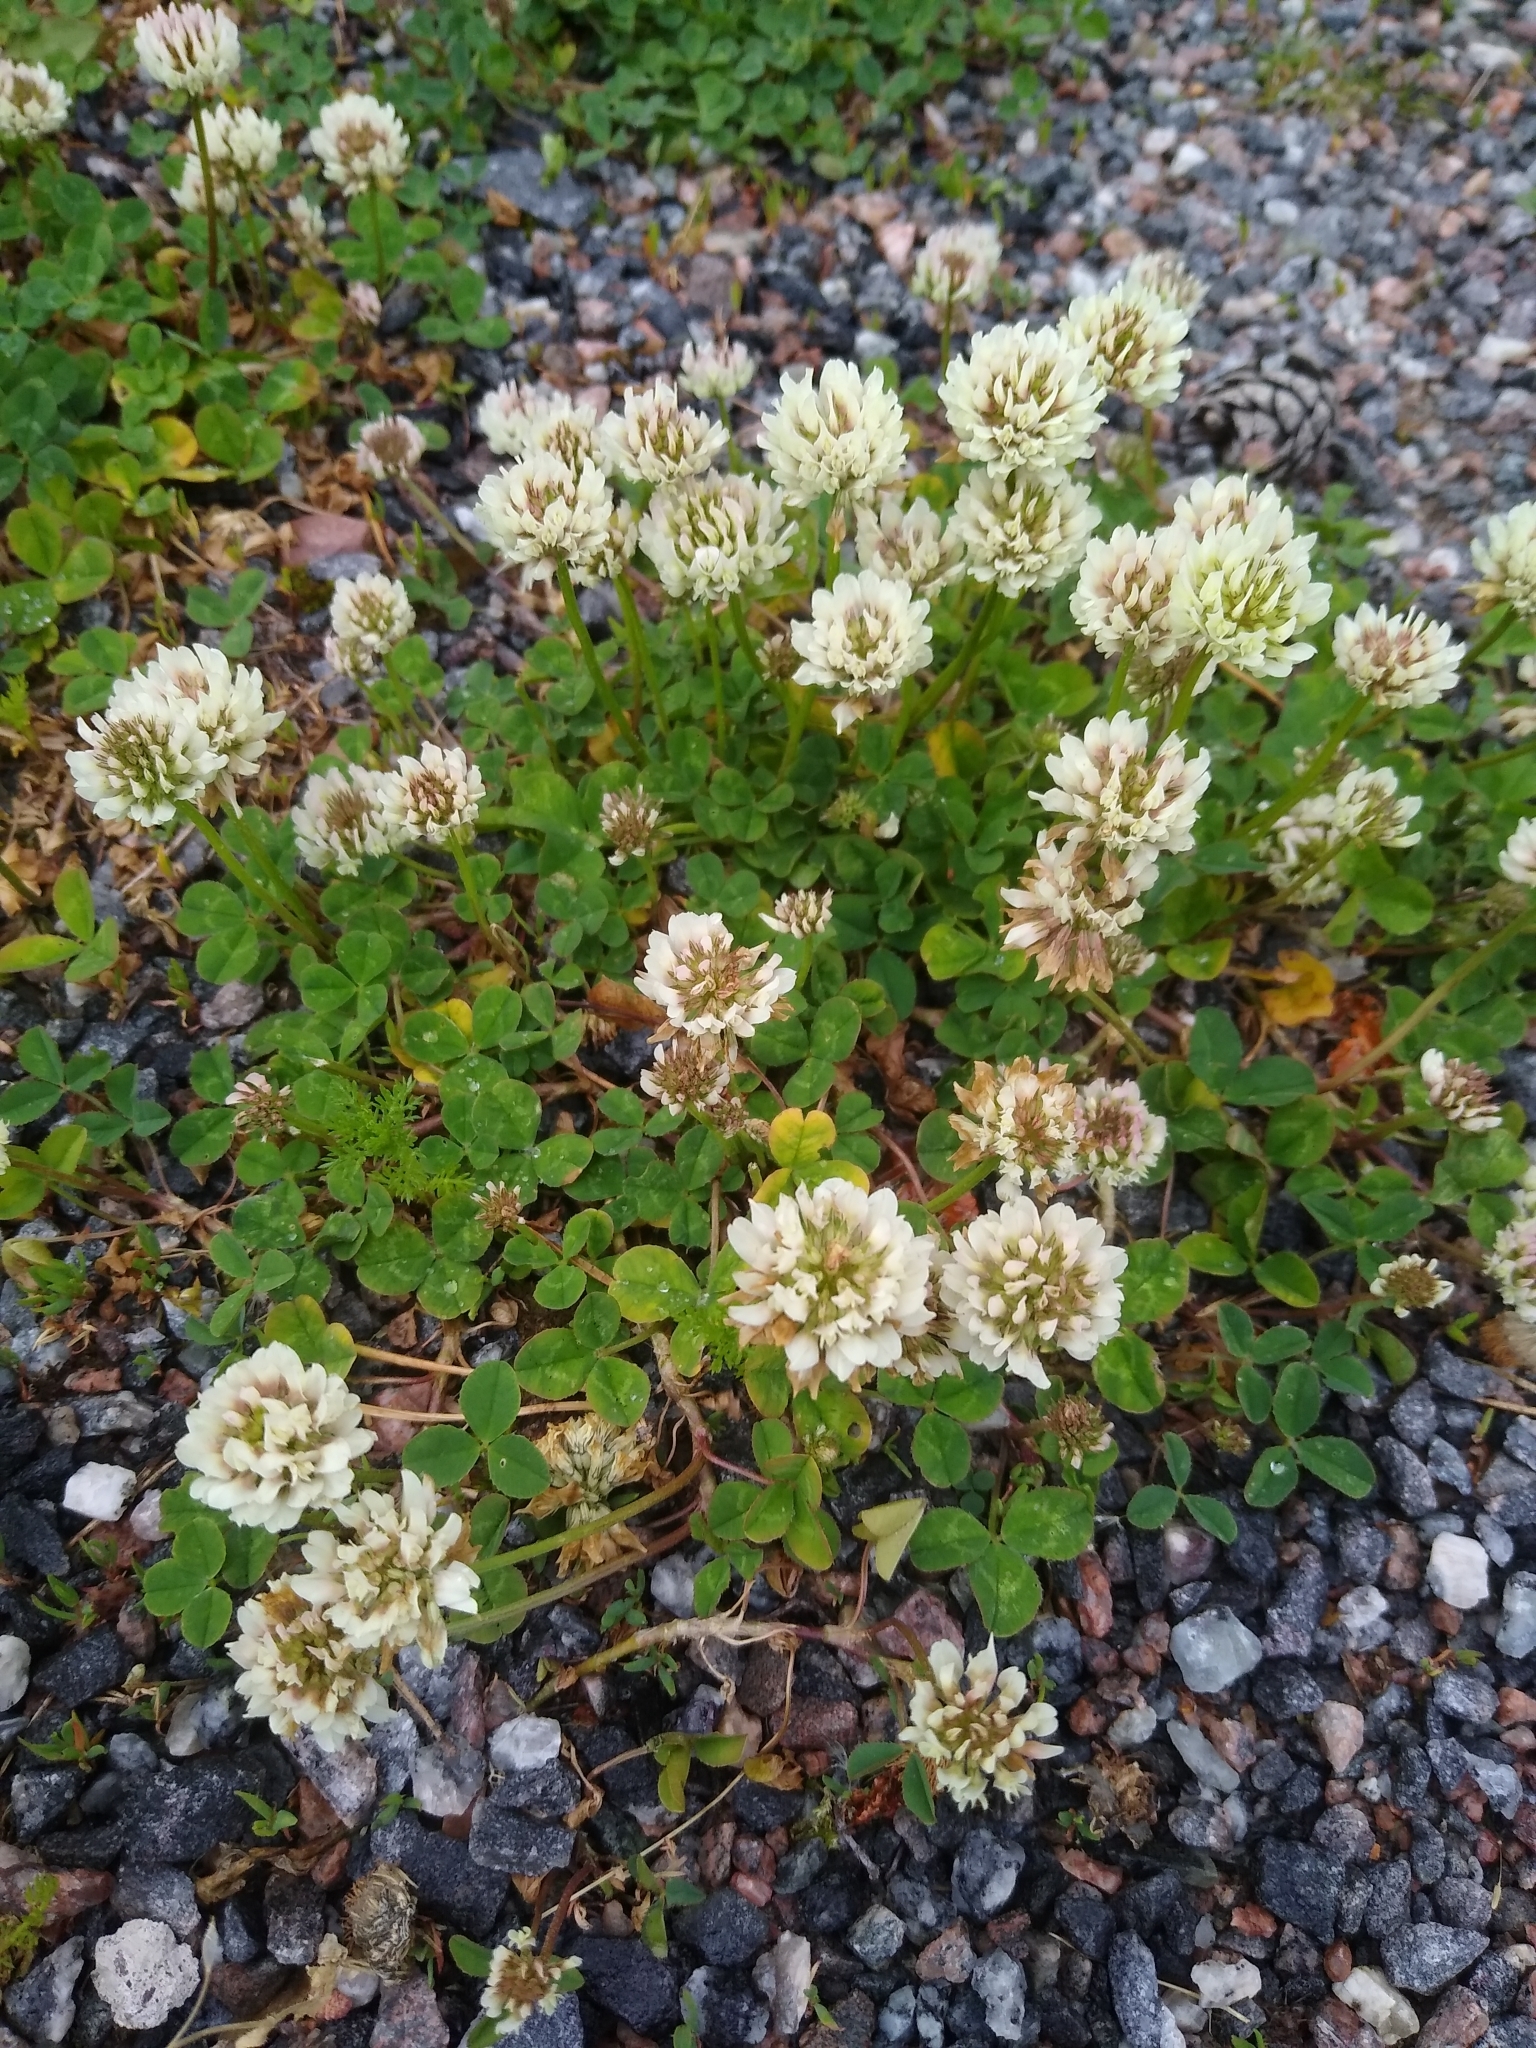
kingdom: Plantae
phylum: Tracheophyta
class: Magnoliopsida
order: Fabales
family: Fabaceae
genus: Trifolium
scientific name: Trifolium repens
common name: White clover
